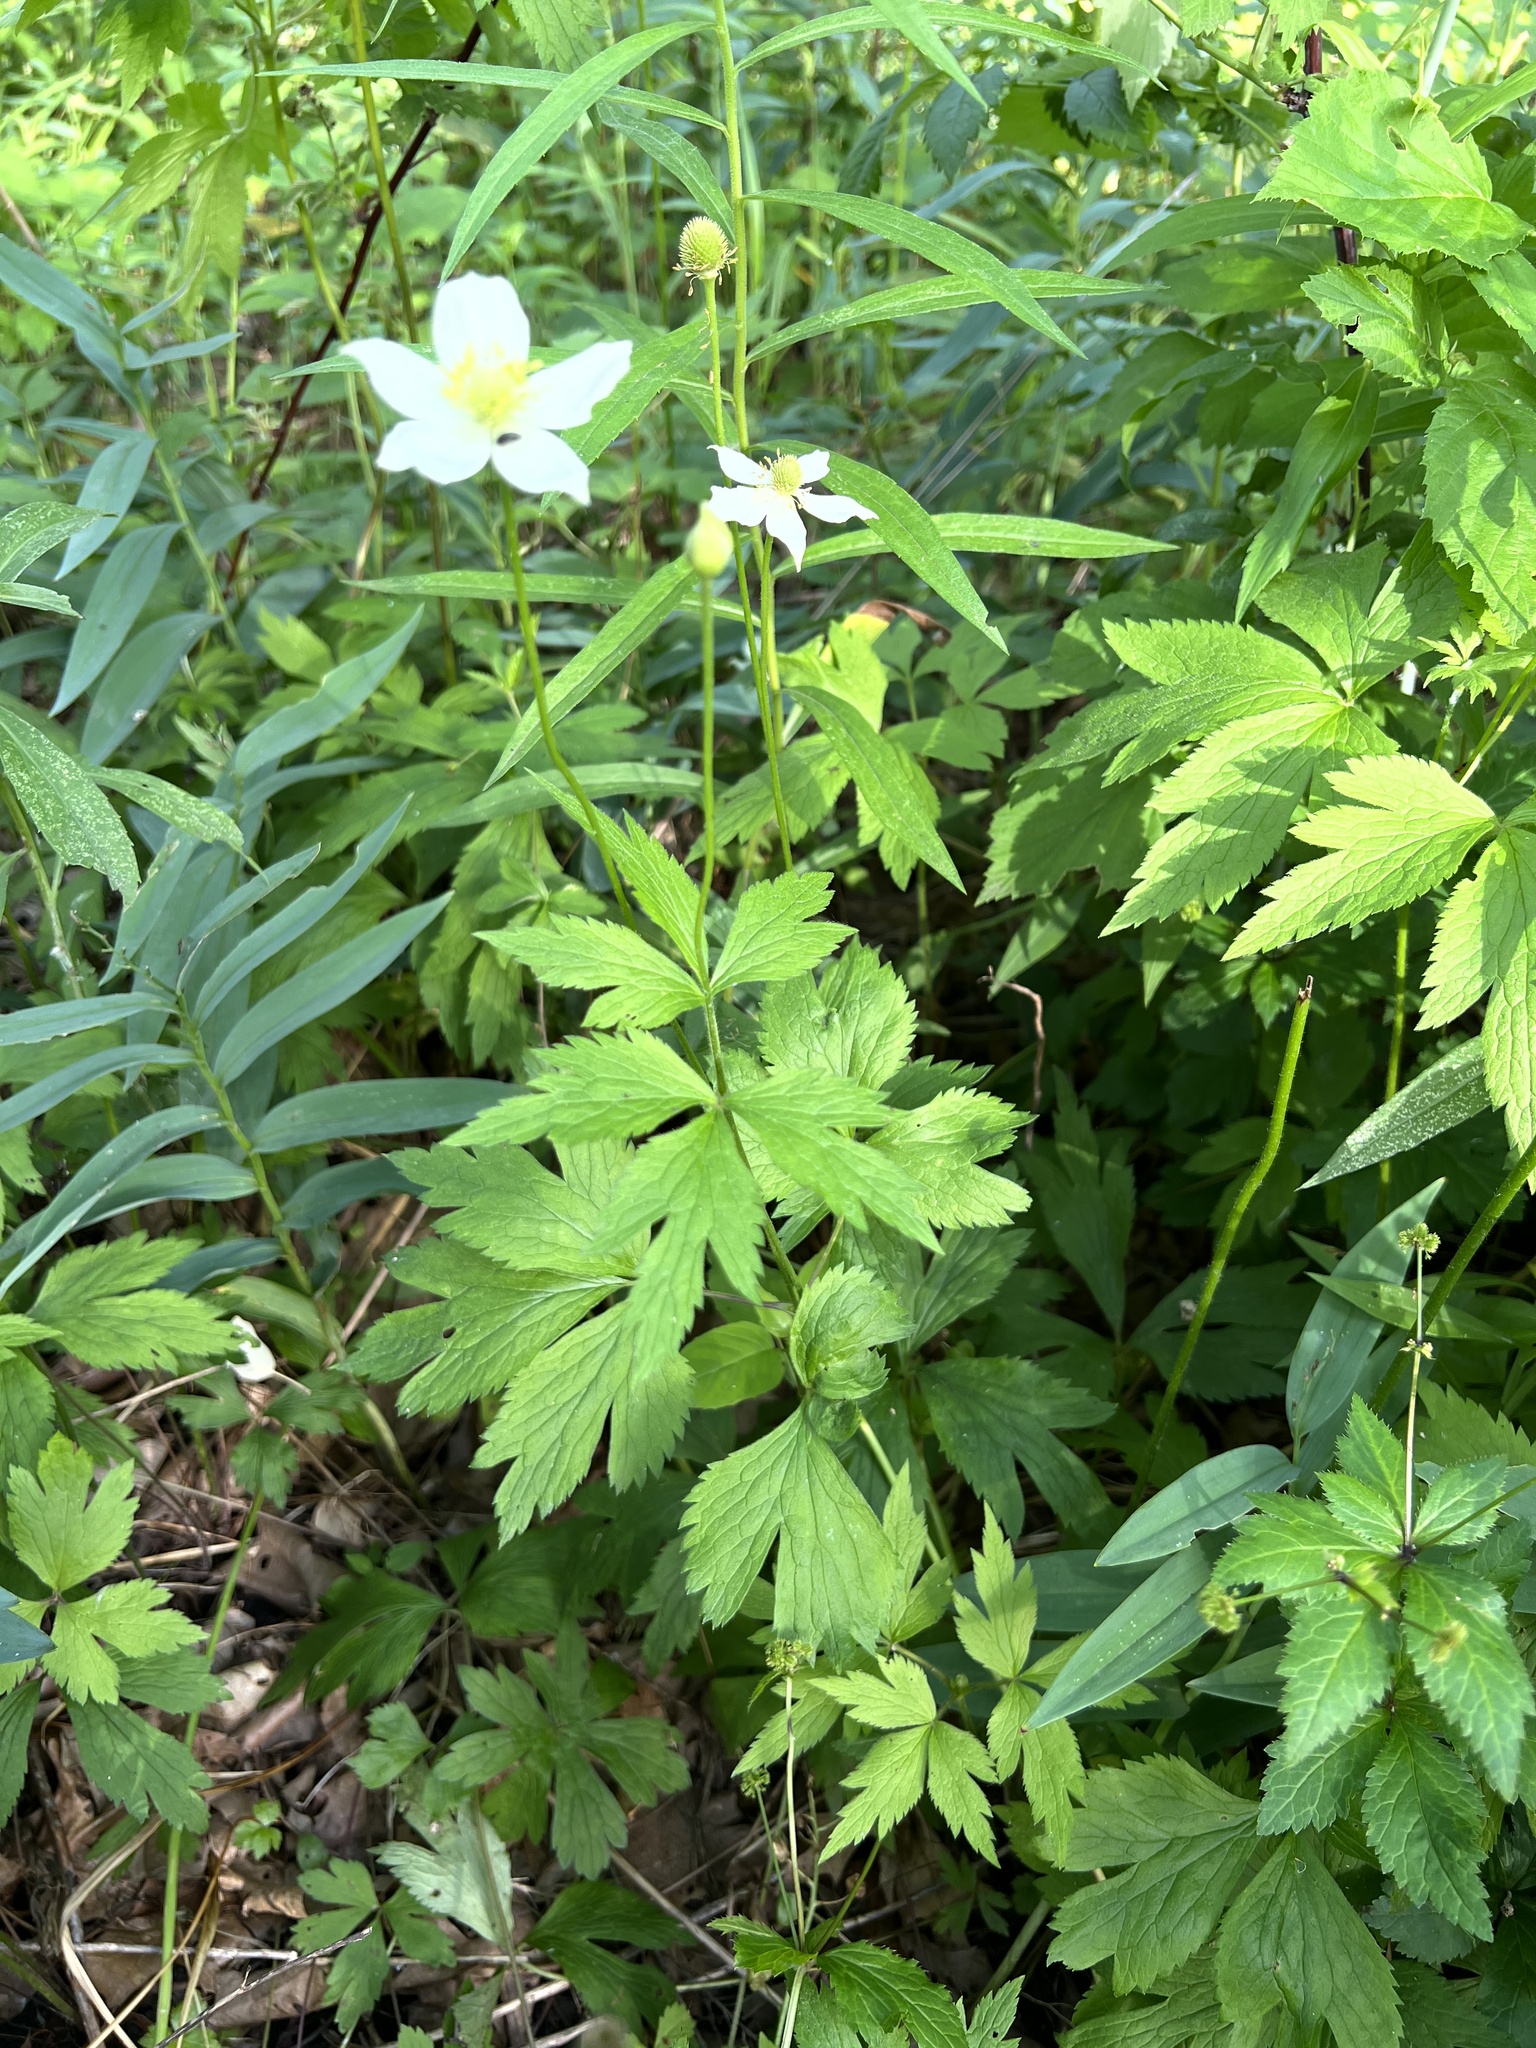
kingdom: Plantae
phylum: Tracheophyta
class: Magnoliopsida
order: Ranunculales
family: Ranunculaceae
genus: Anemone
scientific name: Anemone virginiana
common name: Tall anemone
